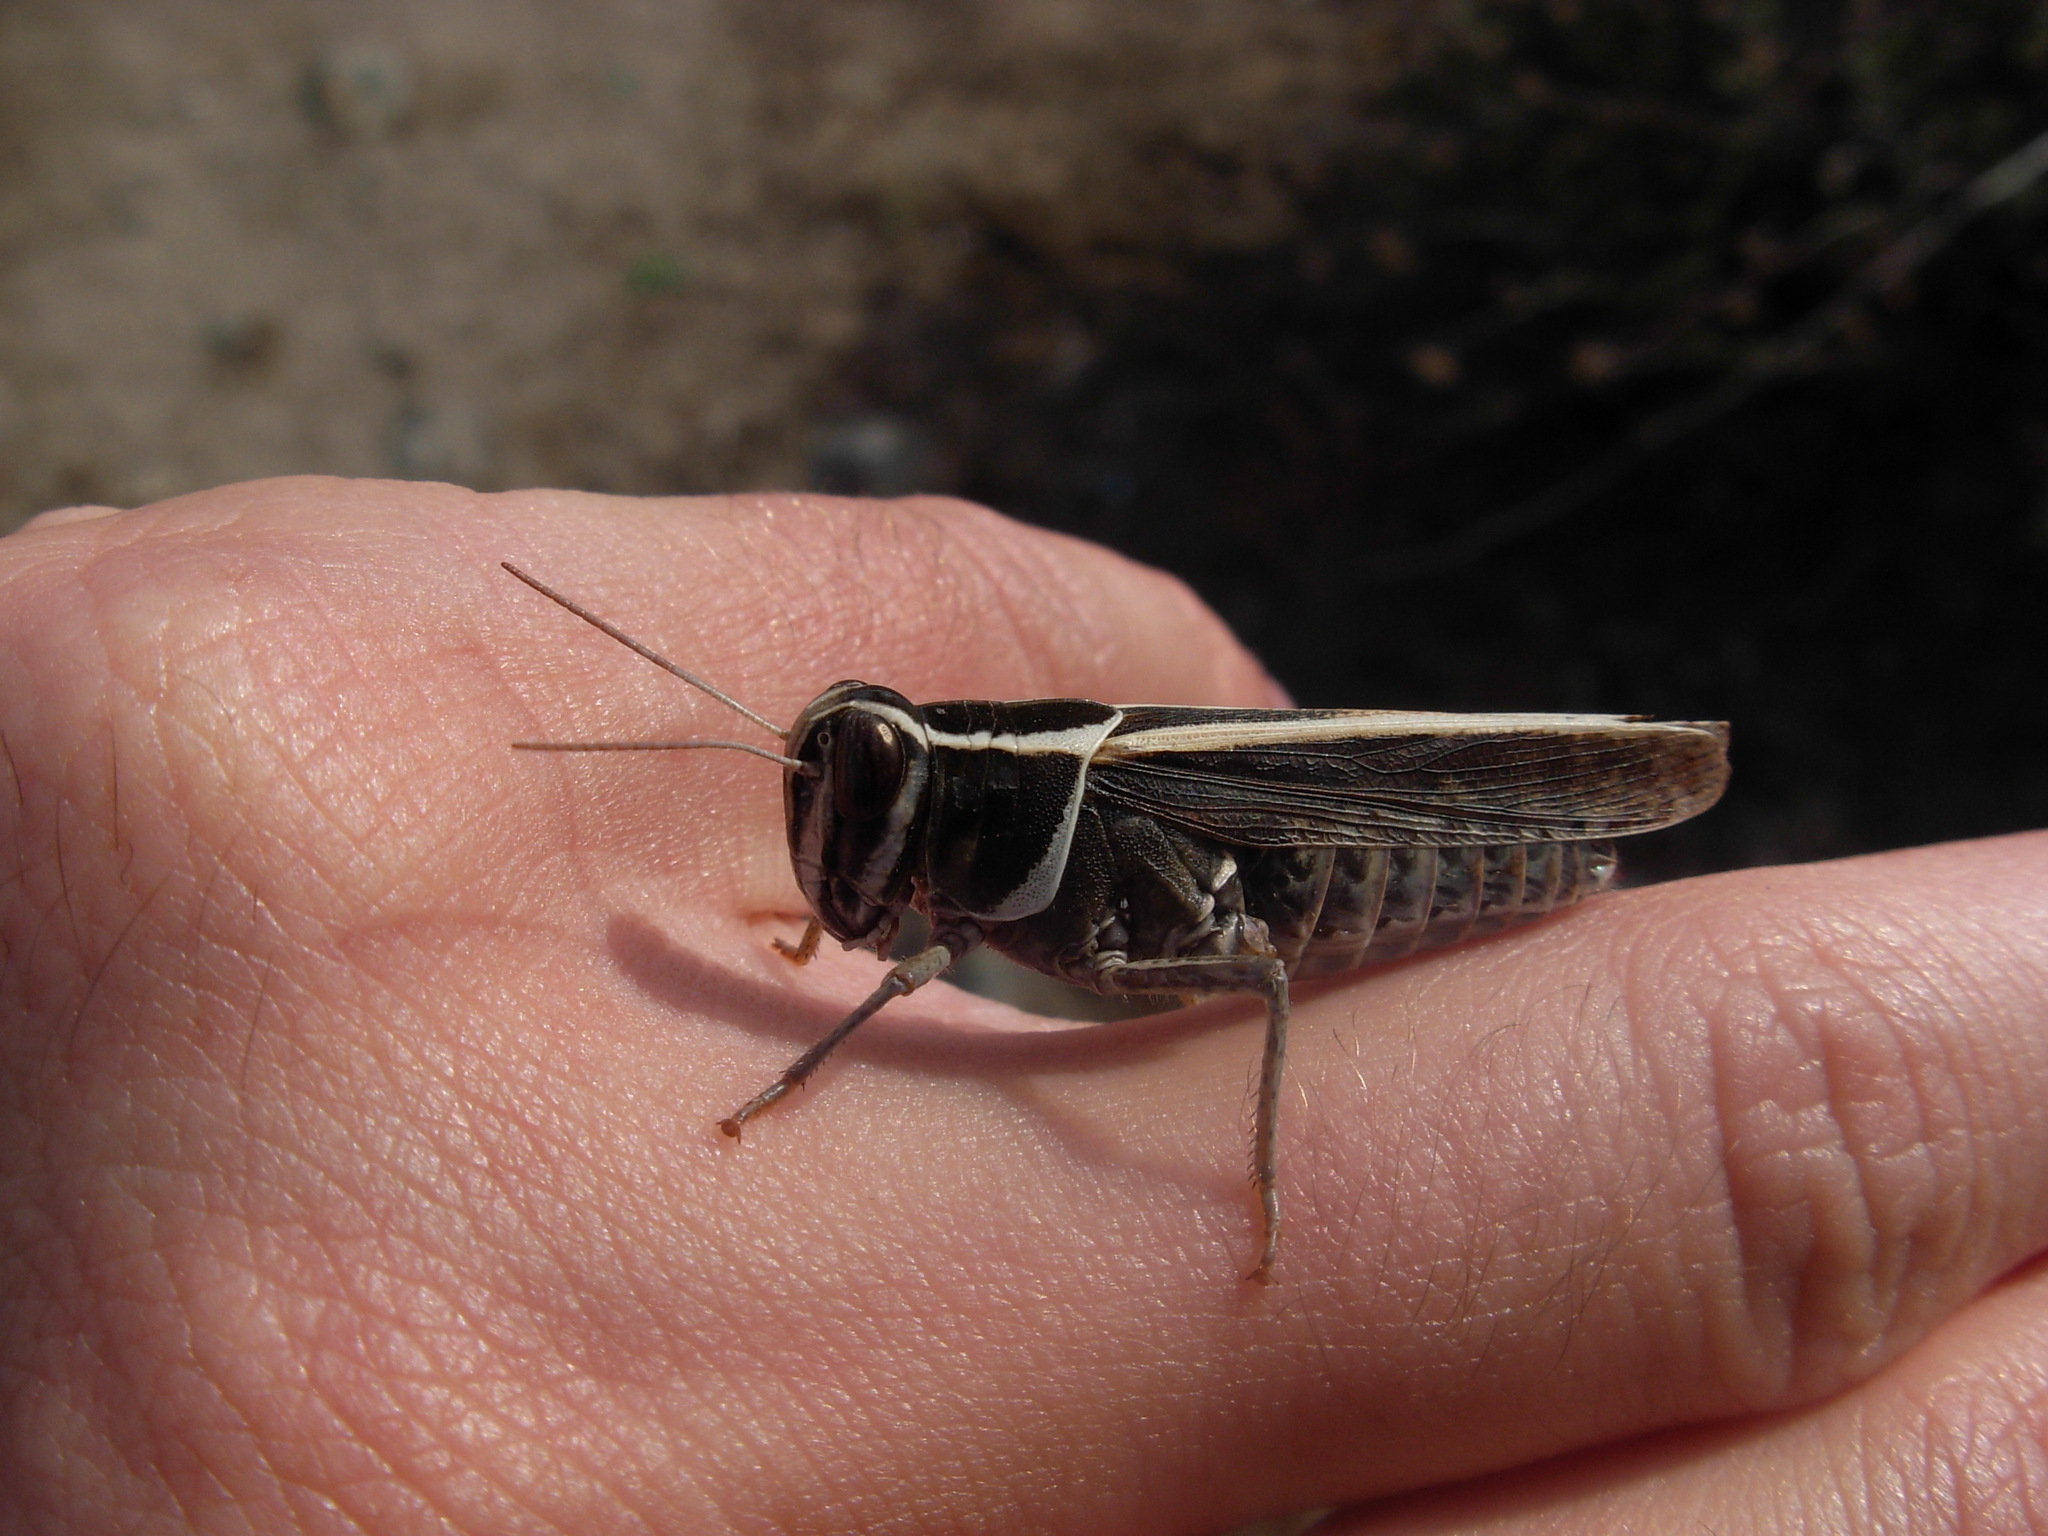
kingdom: Animalia
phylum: Arthropoda
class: Insecta
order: Orthoptera
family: Acrididae
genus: Calliptamus
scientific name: Calliptamus barbarus
